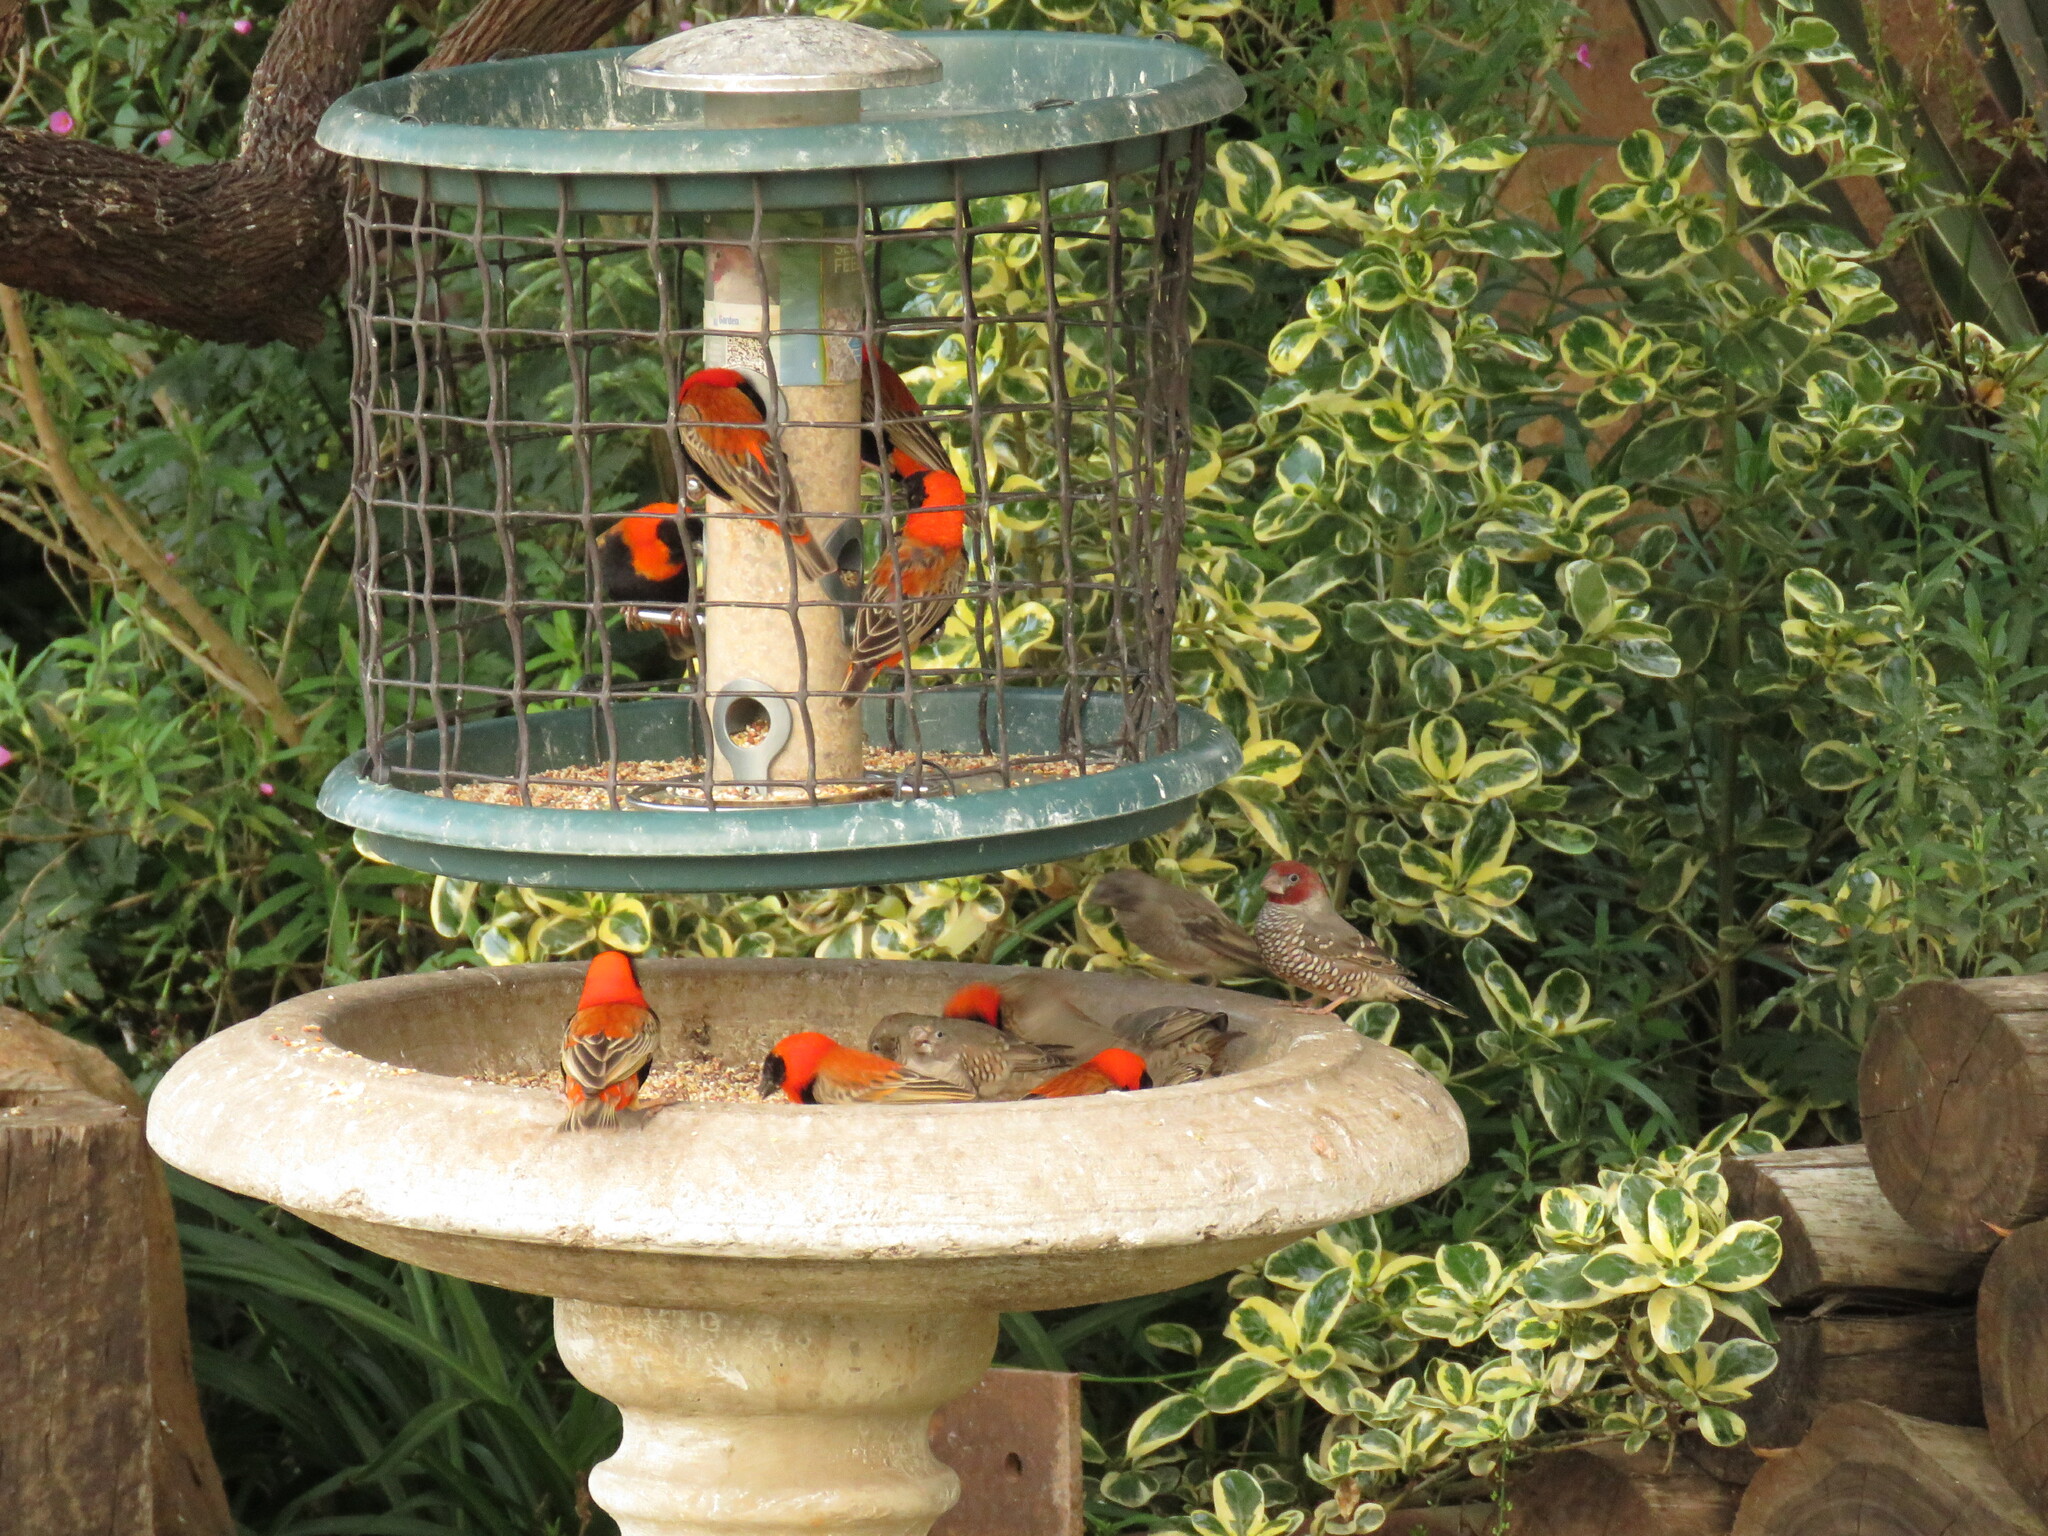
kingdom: Animalia
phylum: Chordata
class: Aves
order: Passeriformes
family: Estrildidae
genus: Amadina
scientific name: Amadina erythrocephala
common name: Red-headed finch
